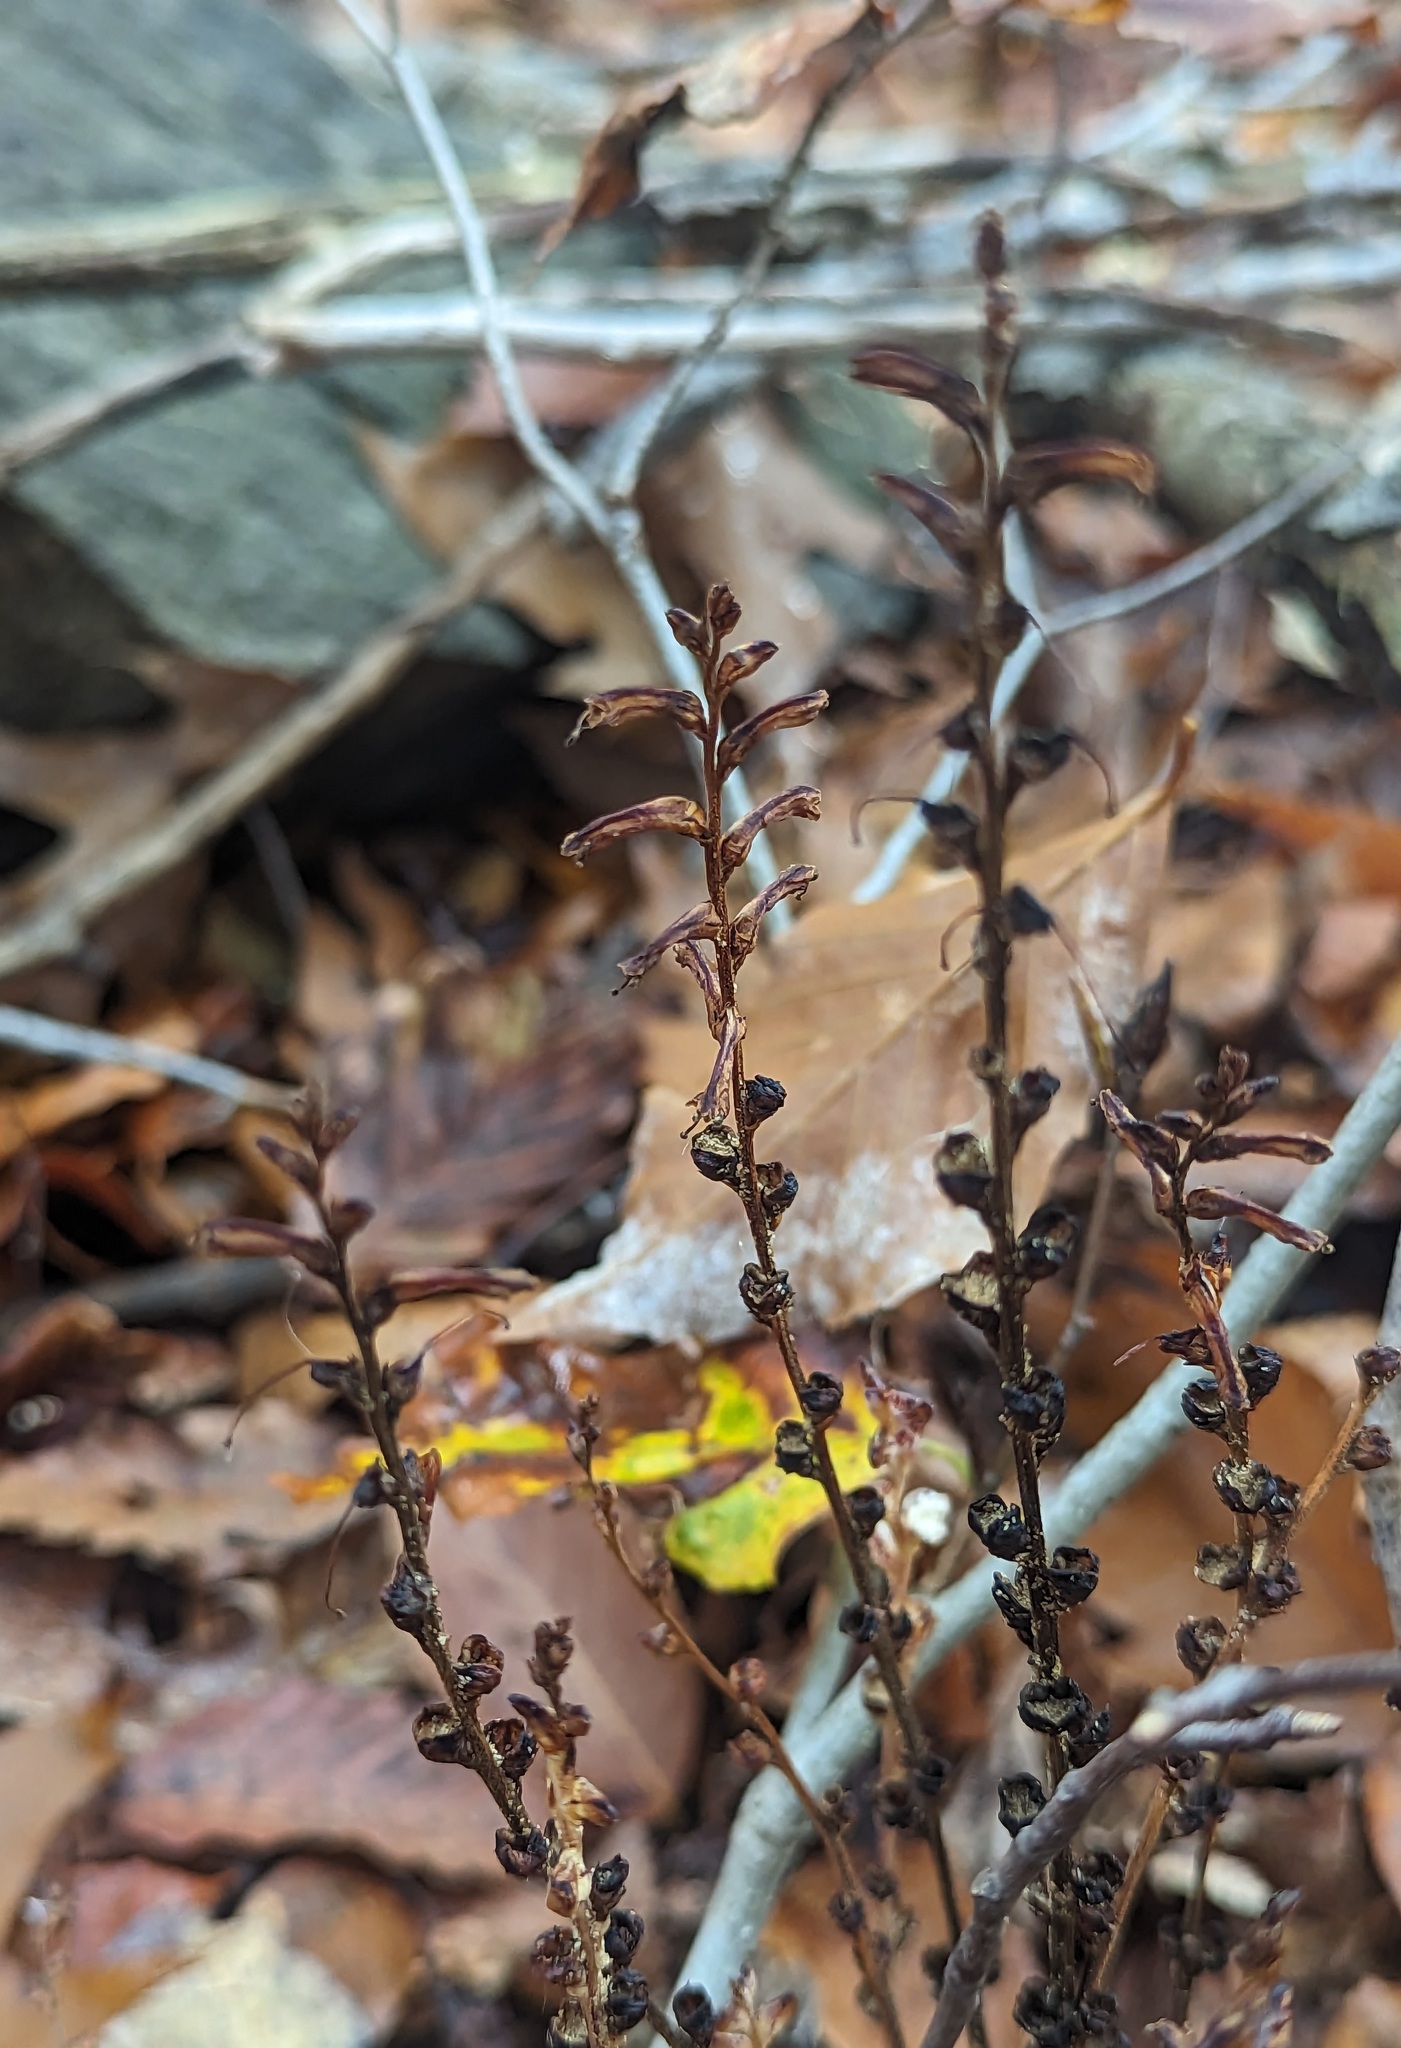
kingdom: Plantae
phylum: Tracheophyta
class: Magnoliopsida
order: Lamiales
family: Orobanchaceae
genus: Epifagus
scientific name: Epifagus virginiana
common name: Beechdrops
